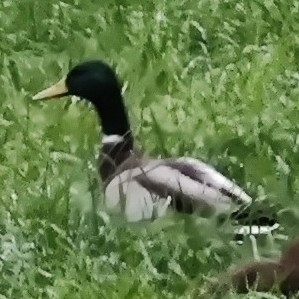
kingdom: Animalia
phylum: Chordata
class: Aves
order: Anseriformes
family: Anatidae
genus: Anas
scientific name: Anas platyrhynchos
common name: Mallard
